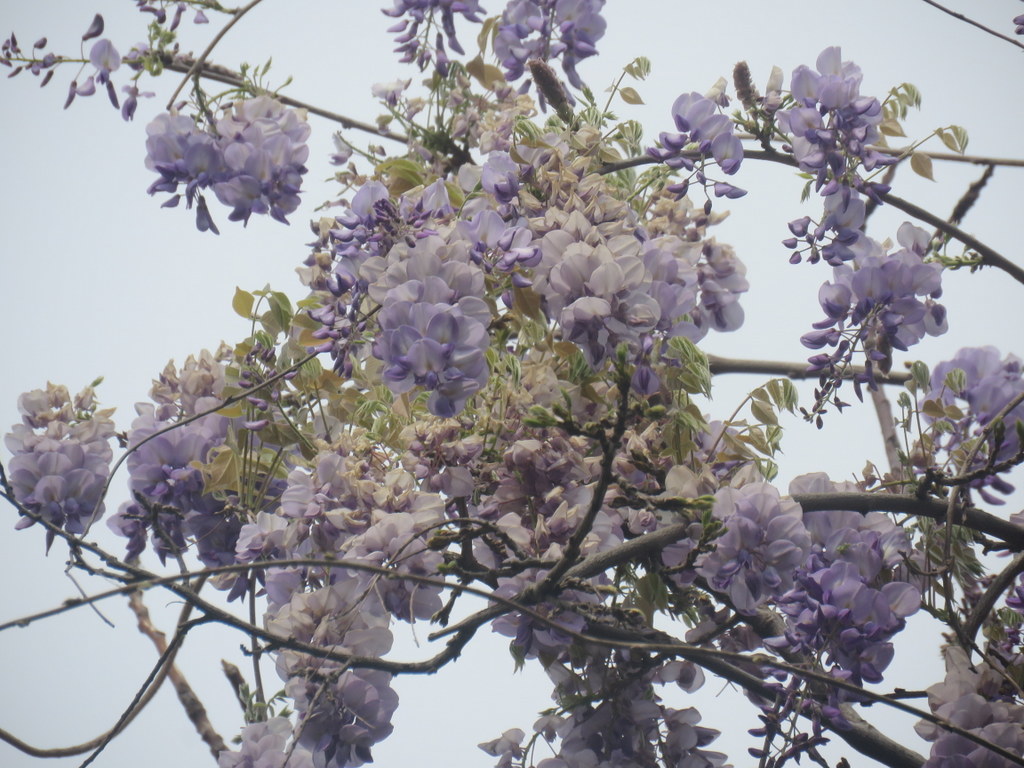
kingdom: Plantae
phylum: Tracheophyta
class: Magnoliopsida
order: Fabales
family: Fabaceae
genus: Wisteria
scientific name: Wisteria sinensis
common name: Chinese wisteria
